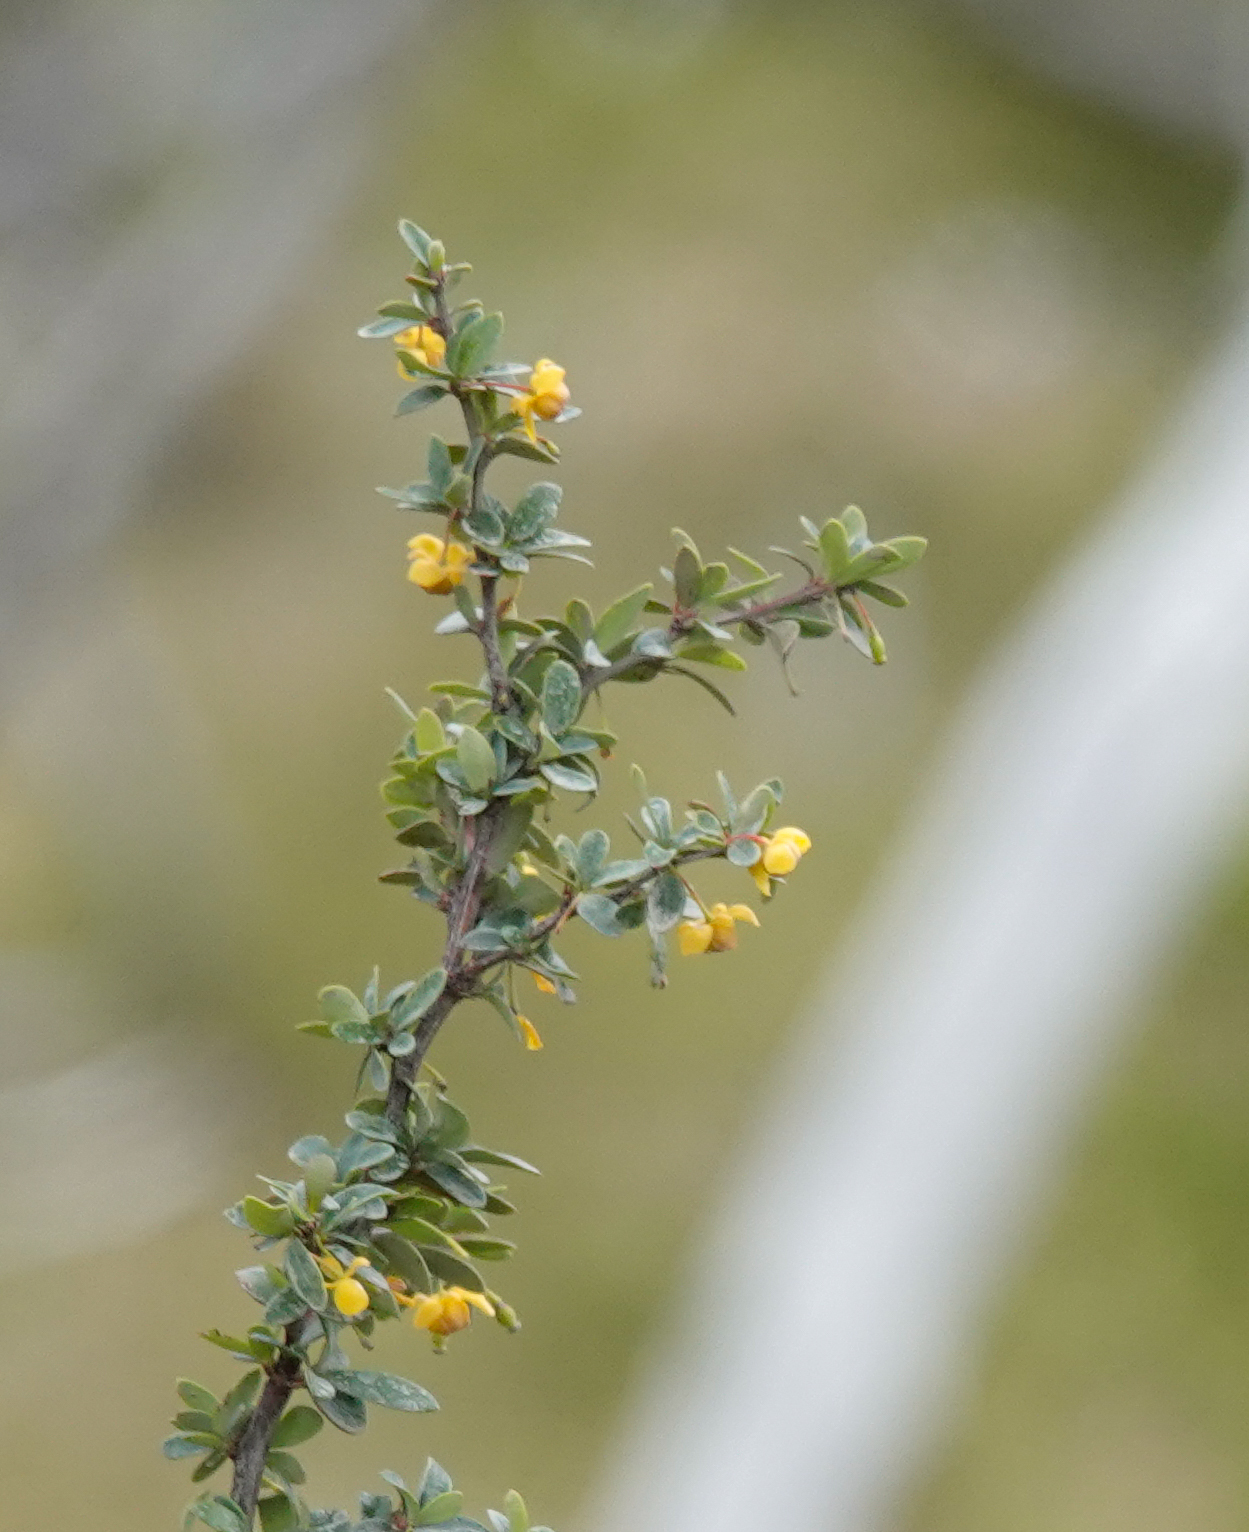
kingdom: Plantae
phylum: Tracheophyta
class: Magnoliopsida
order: Ranunculales
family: Berberidaceae
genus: Berberis
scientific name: Berberis microphylla
